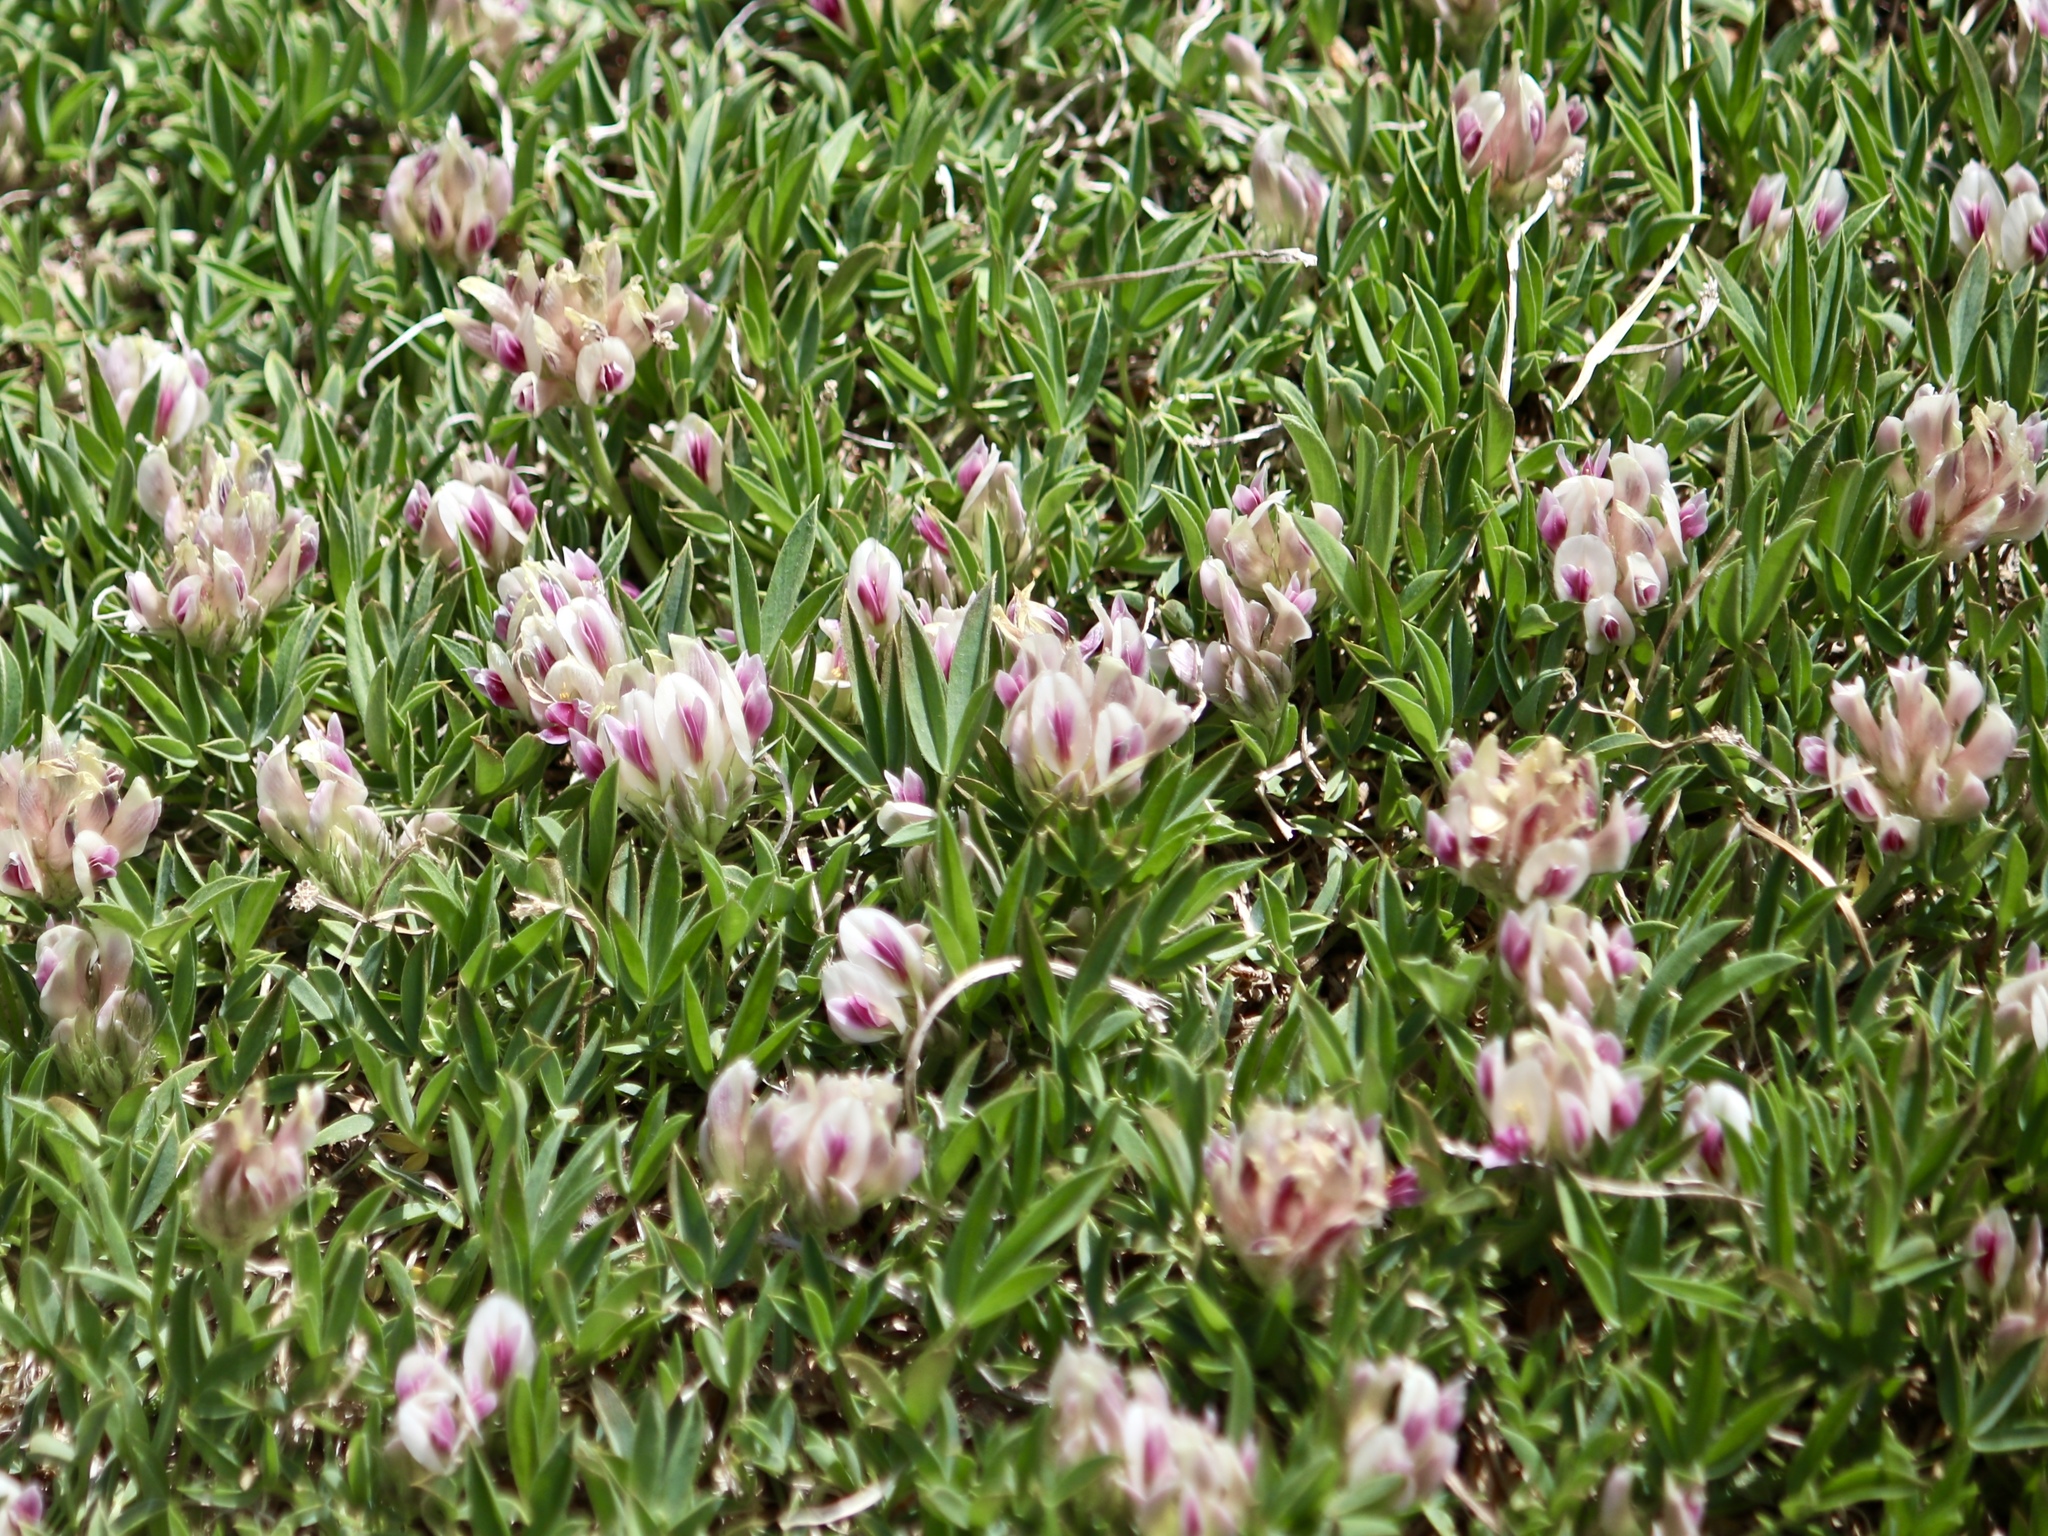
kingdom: Plantae
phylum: Tracheophyta
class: Magnoliopsida
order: Fabales
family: Fabaceae
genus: Trifolium
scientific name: Trifolium dasyphyllum
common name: Whip-root clover
